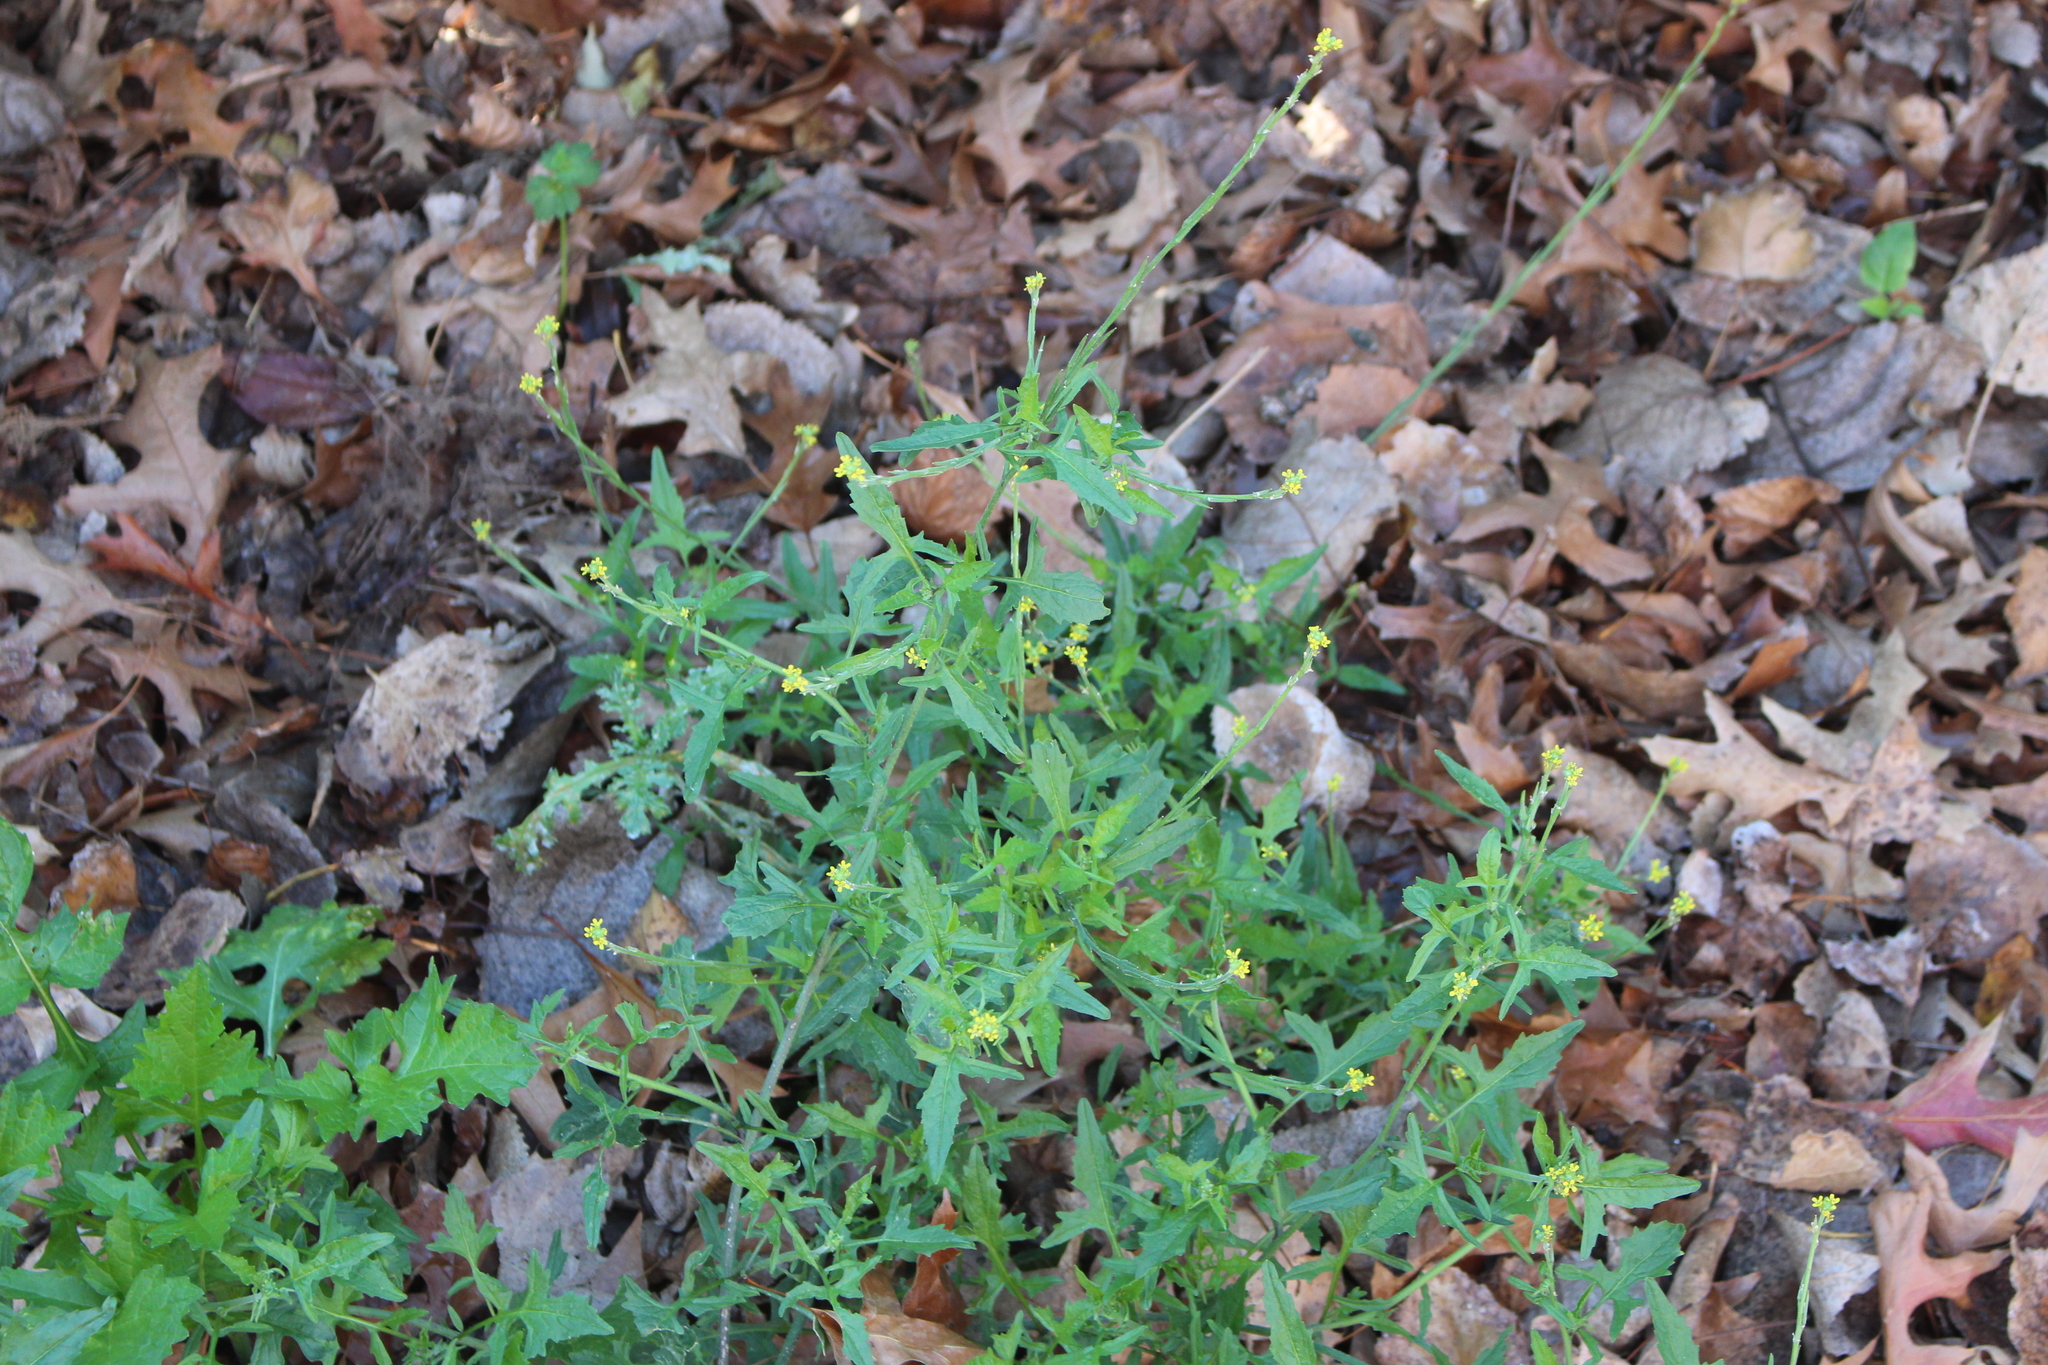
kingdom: Plantae
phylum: Tracheophyta
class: Magnoliopsida
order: Brassicales
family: Brassicaceae
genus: Sisymbrium
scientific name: Sisymbrium officinale
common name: Hedge mustard
